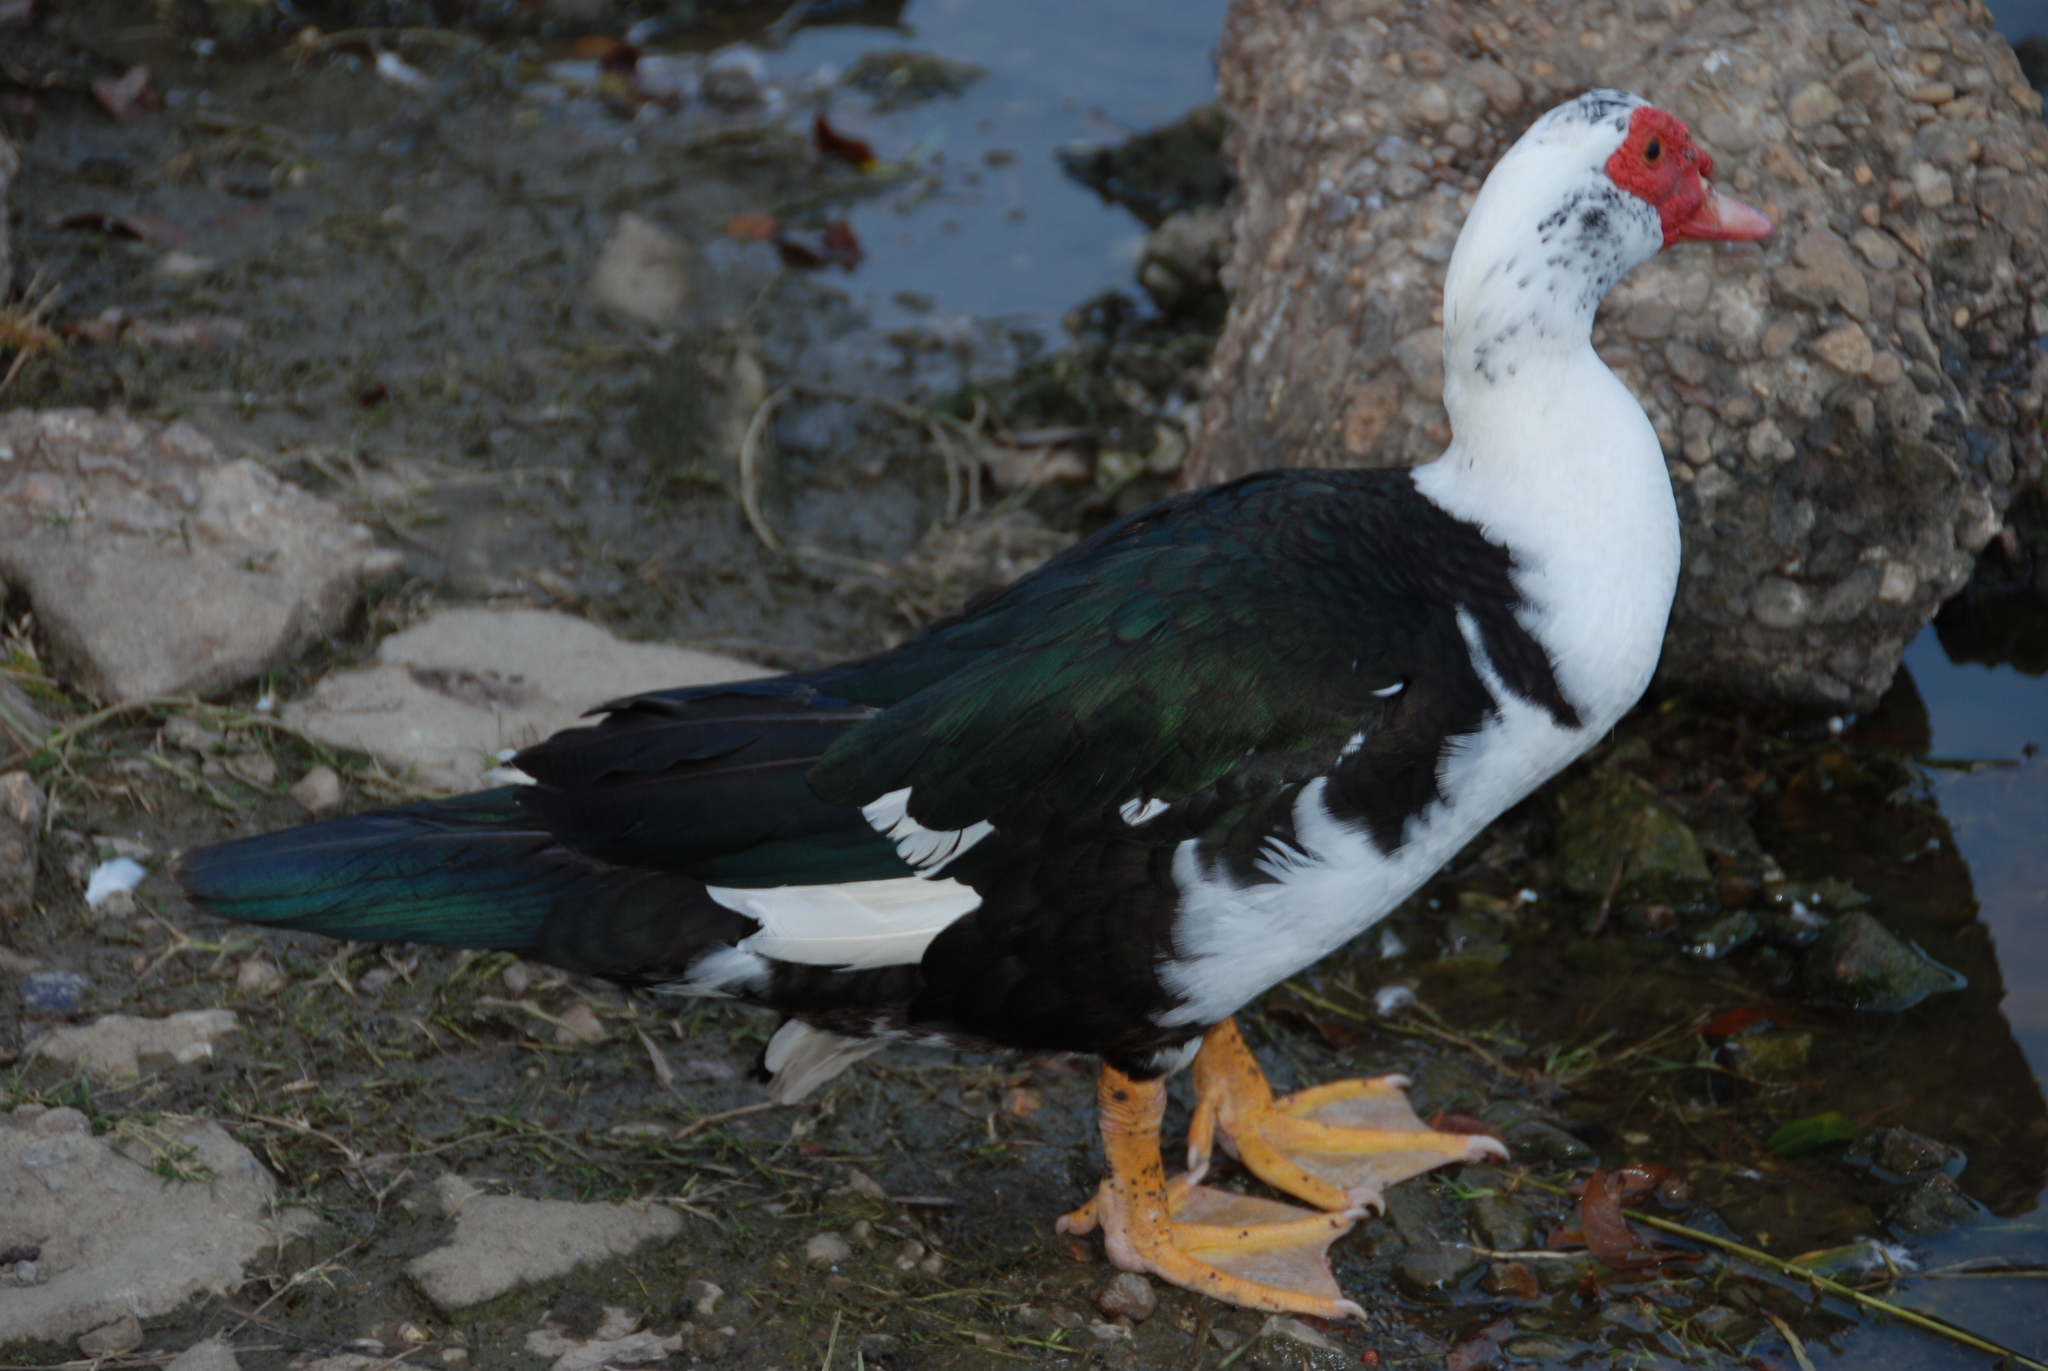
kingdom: Animalia
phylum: Chordata
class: Aves
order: Anseriformes
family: Anatidae
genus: Cairina
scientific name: Cairina moschata
